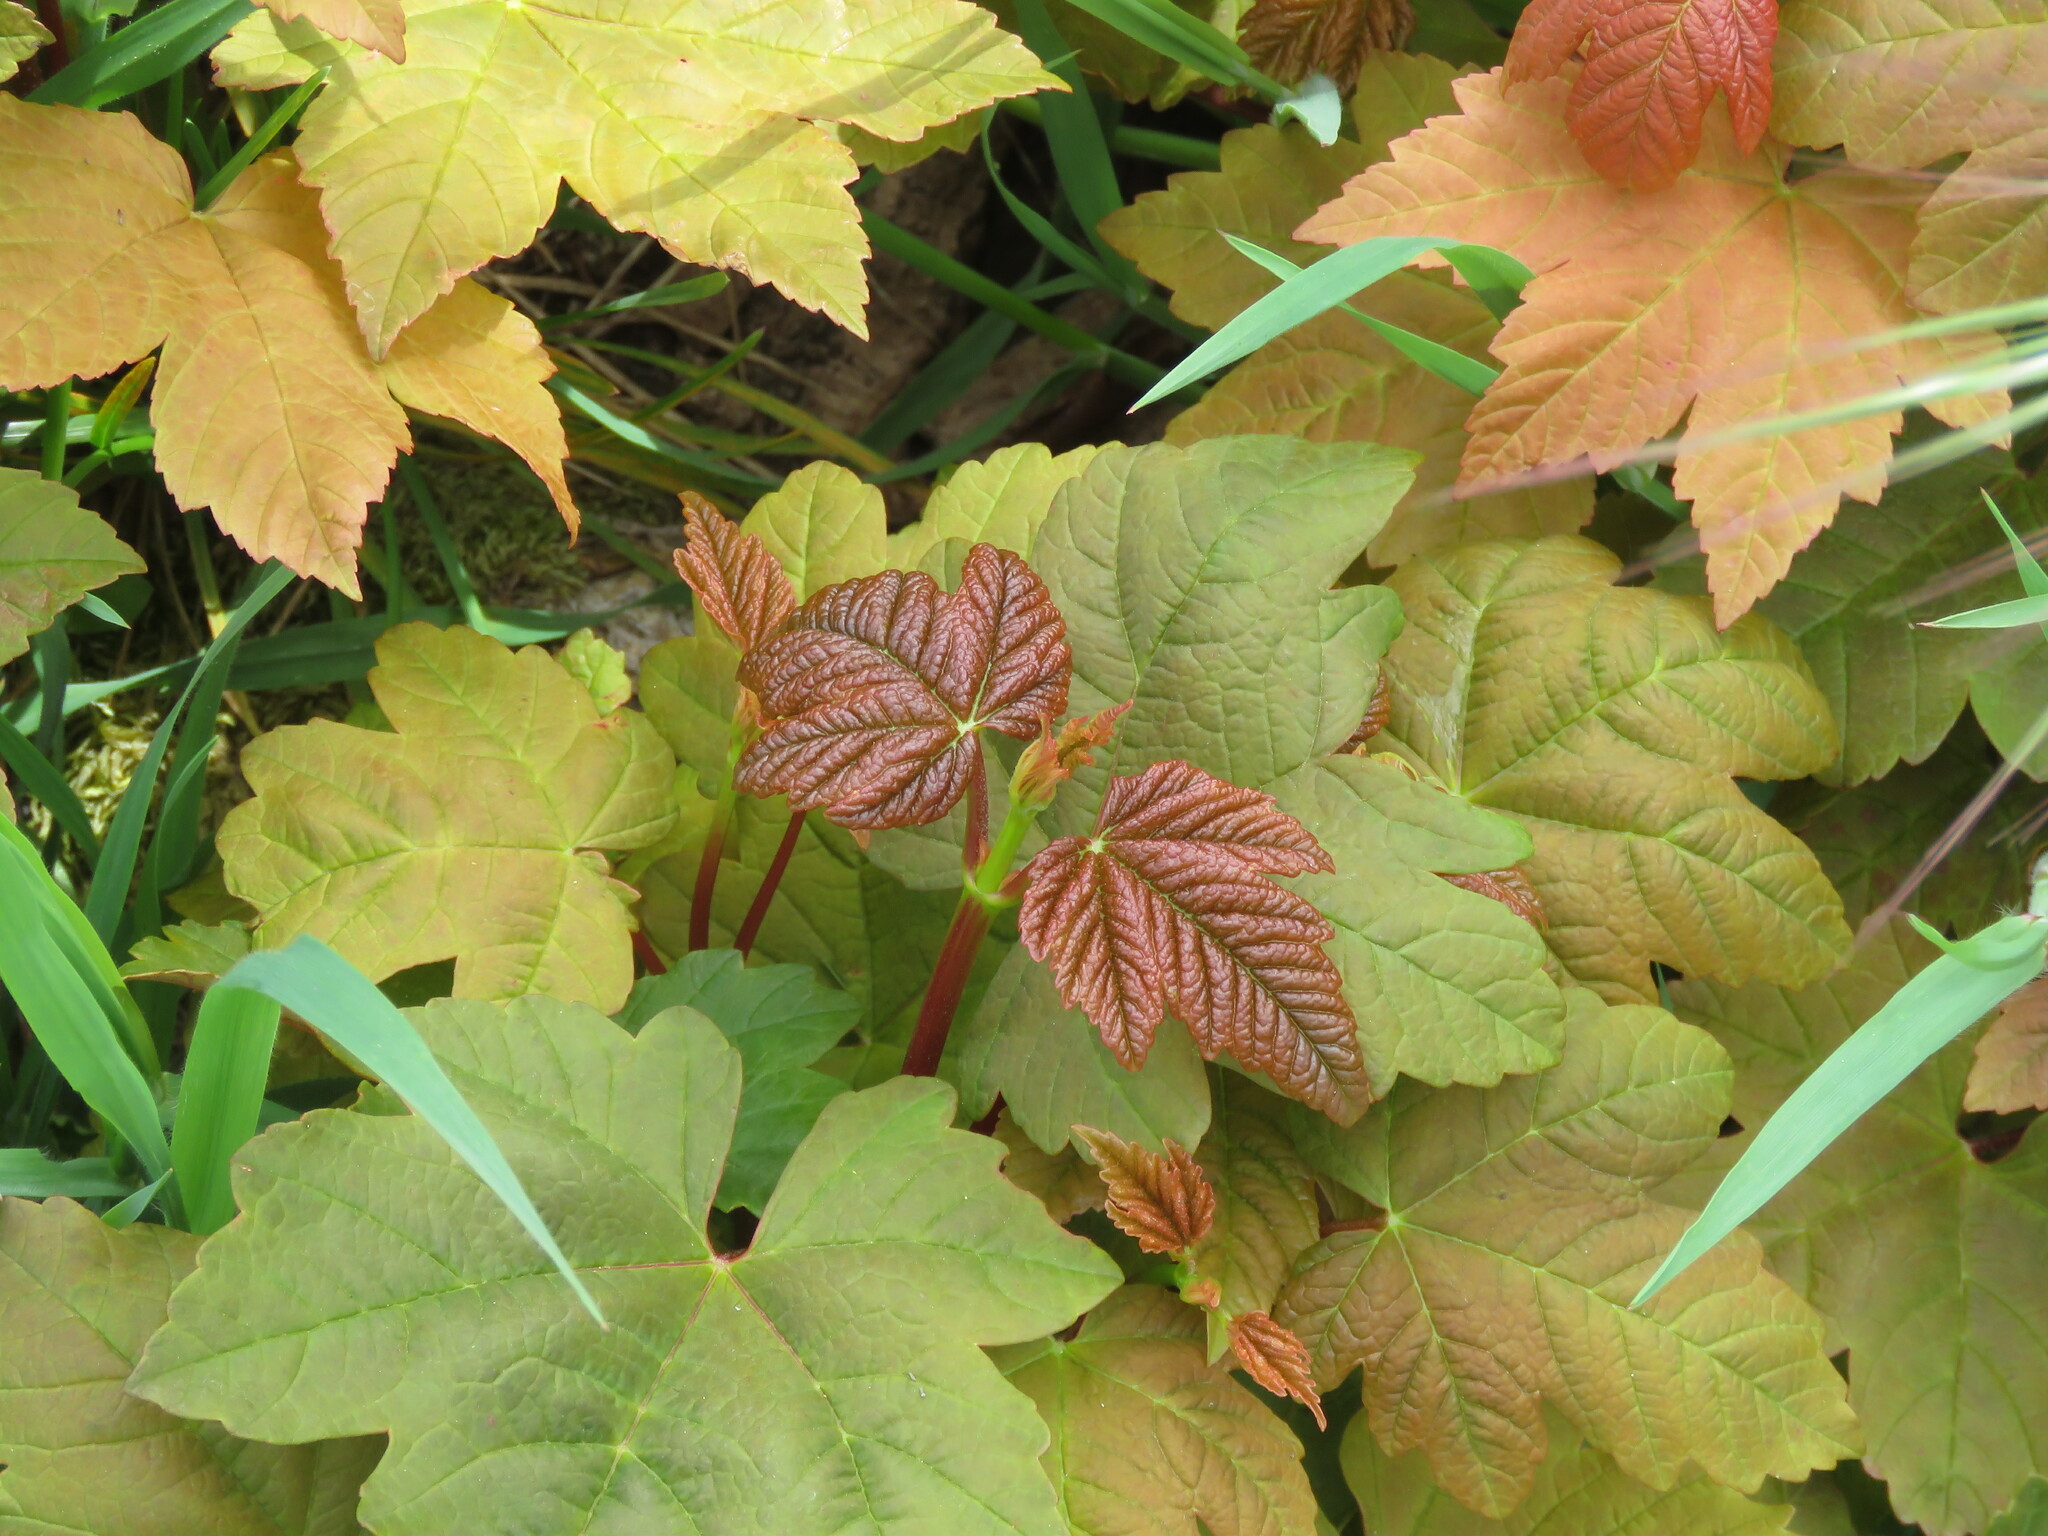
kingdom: Plantae
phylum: Tracheophyta
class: Magnoliopsida
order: Sapindales
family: Sapindaceae
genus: Acer
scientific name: Acer pseudoplatanus
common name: Sycamore
